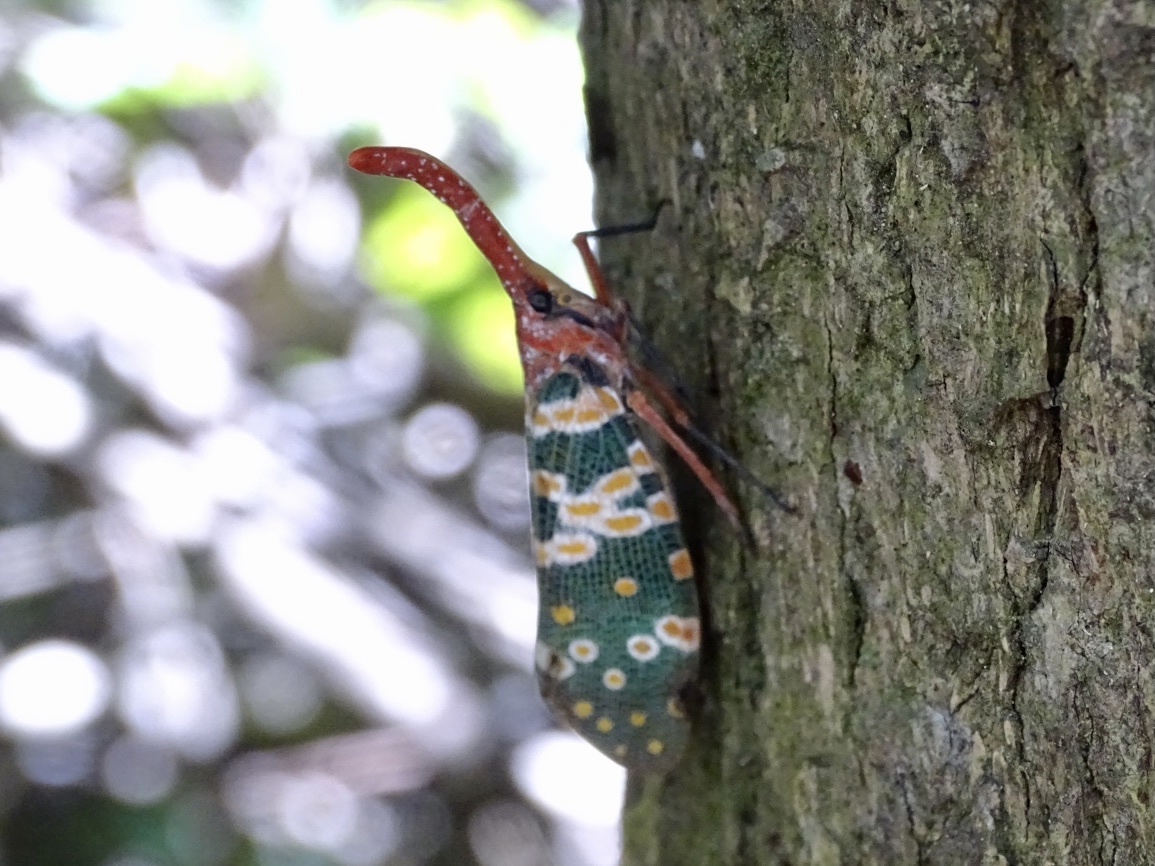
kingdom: Animalia
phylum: Arthropoda
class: Insecta
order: Hemiptera
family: Fulgoridae
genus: Pyrops
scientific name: Pyrops candelaria
